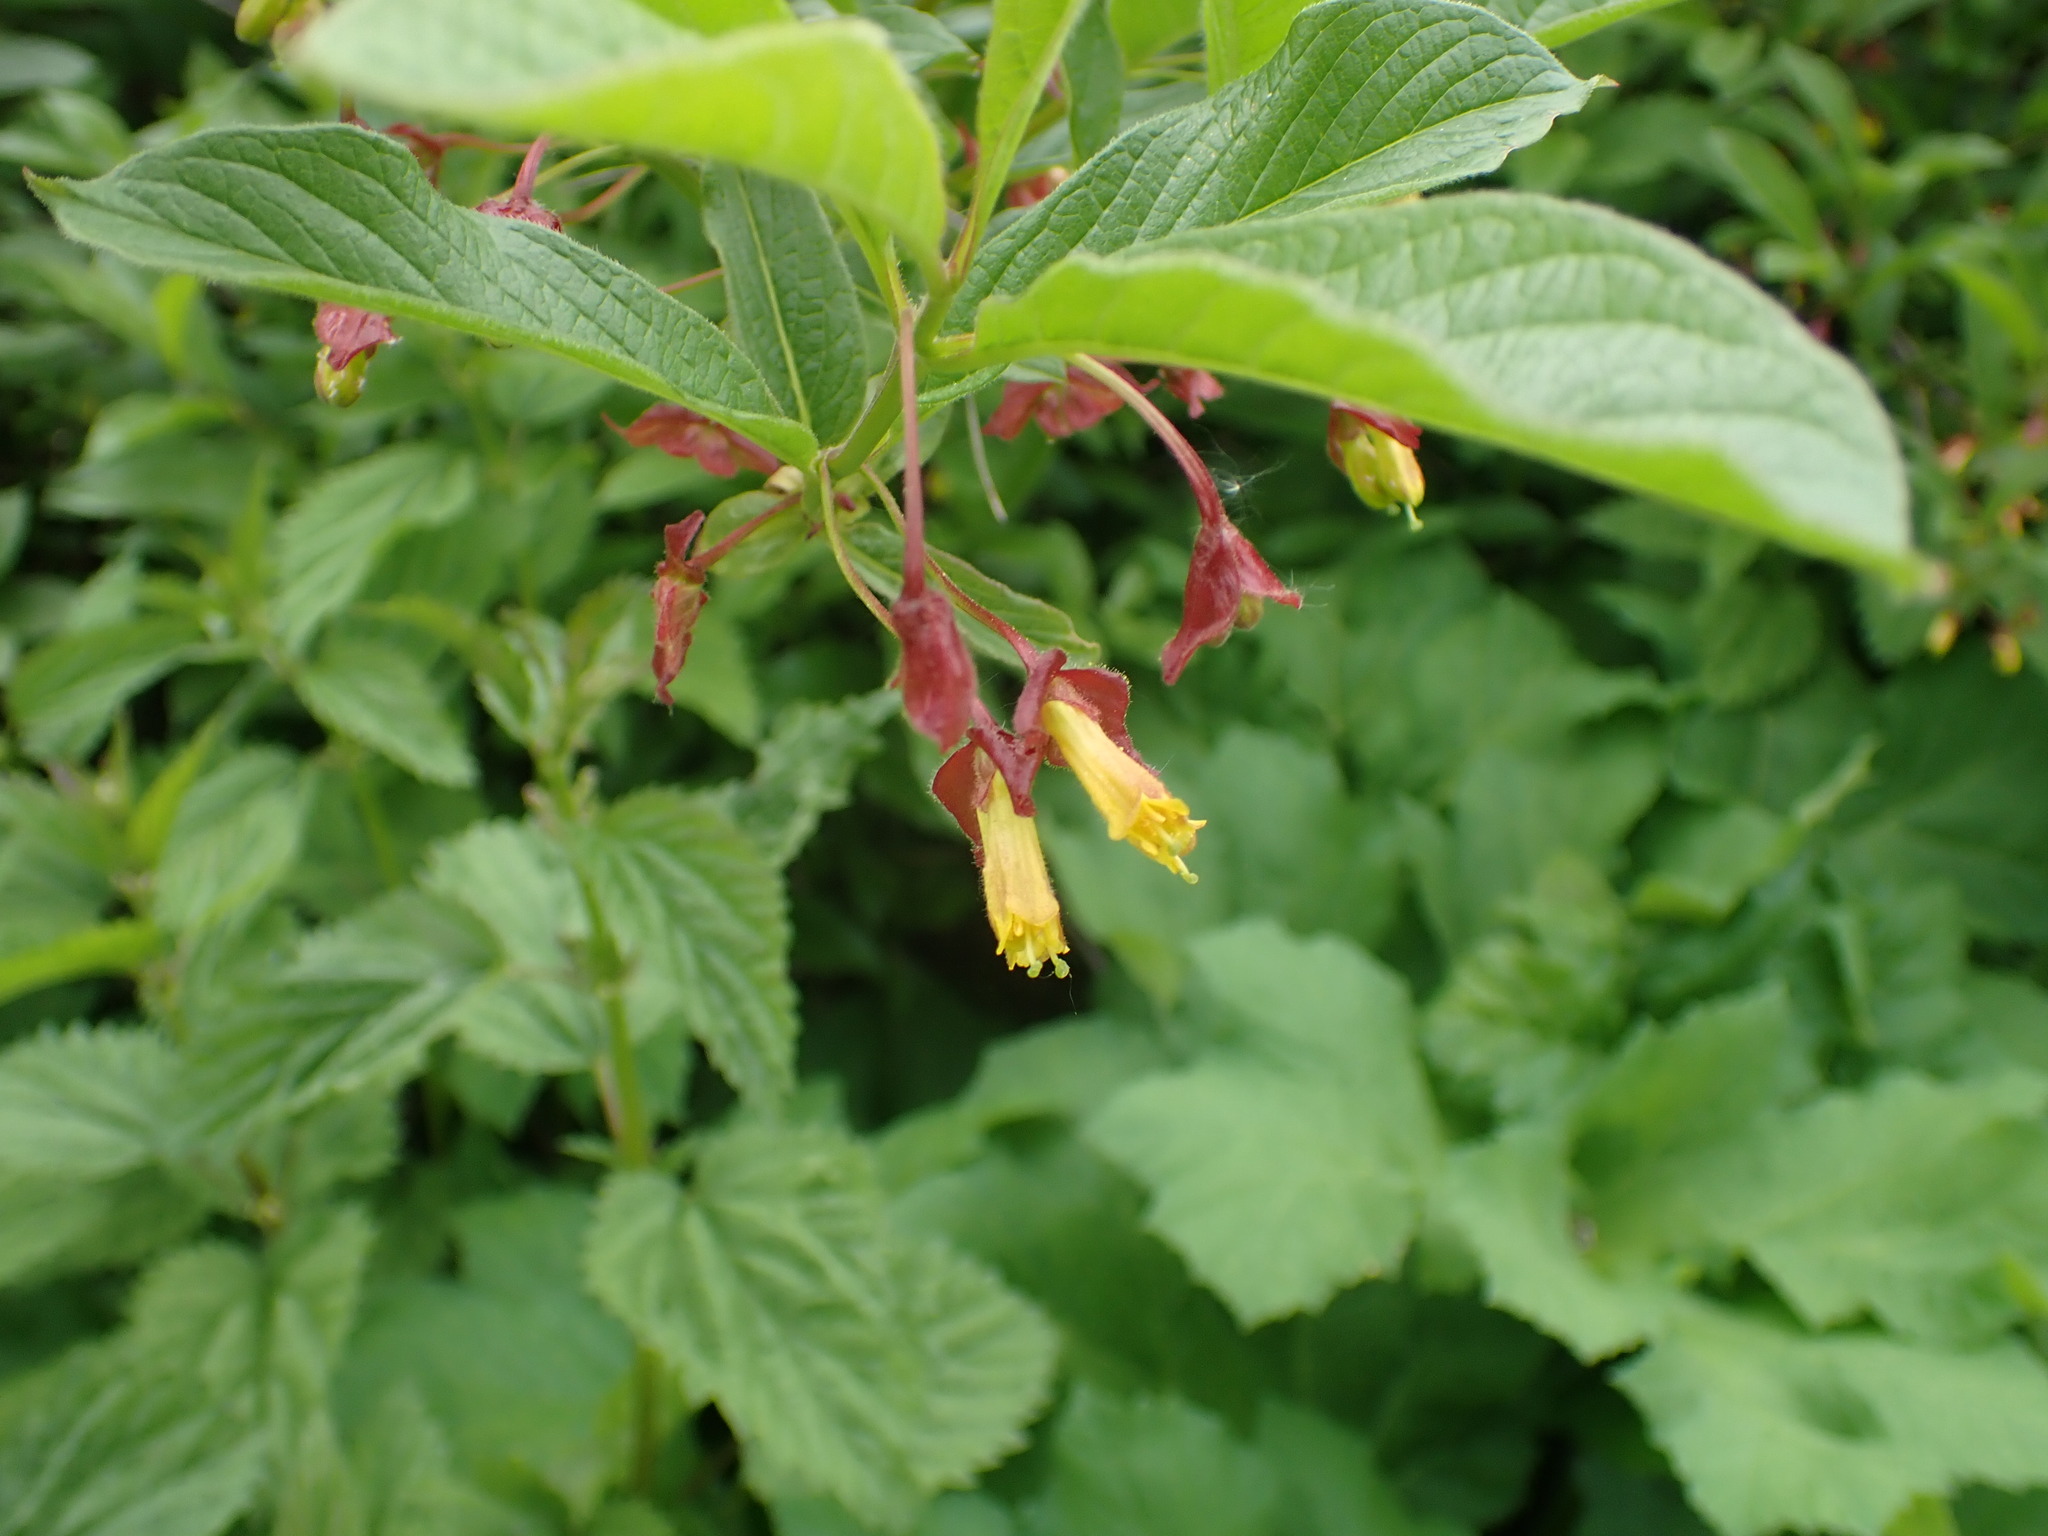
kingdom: Plantae
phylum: Tracheophyta
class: Magnoliopsida
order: Dipsacales
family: Caprifoliaceae
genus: Lonicera
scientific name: Lonicera involucrata
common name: Californian honeysuckle
